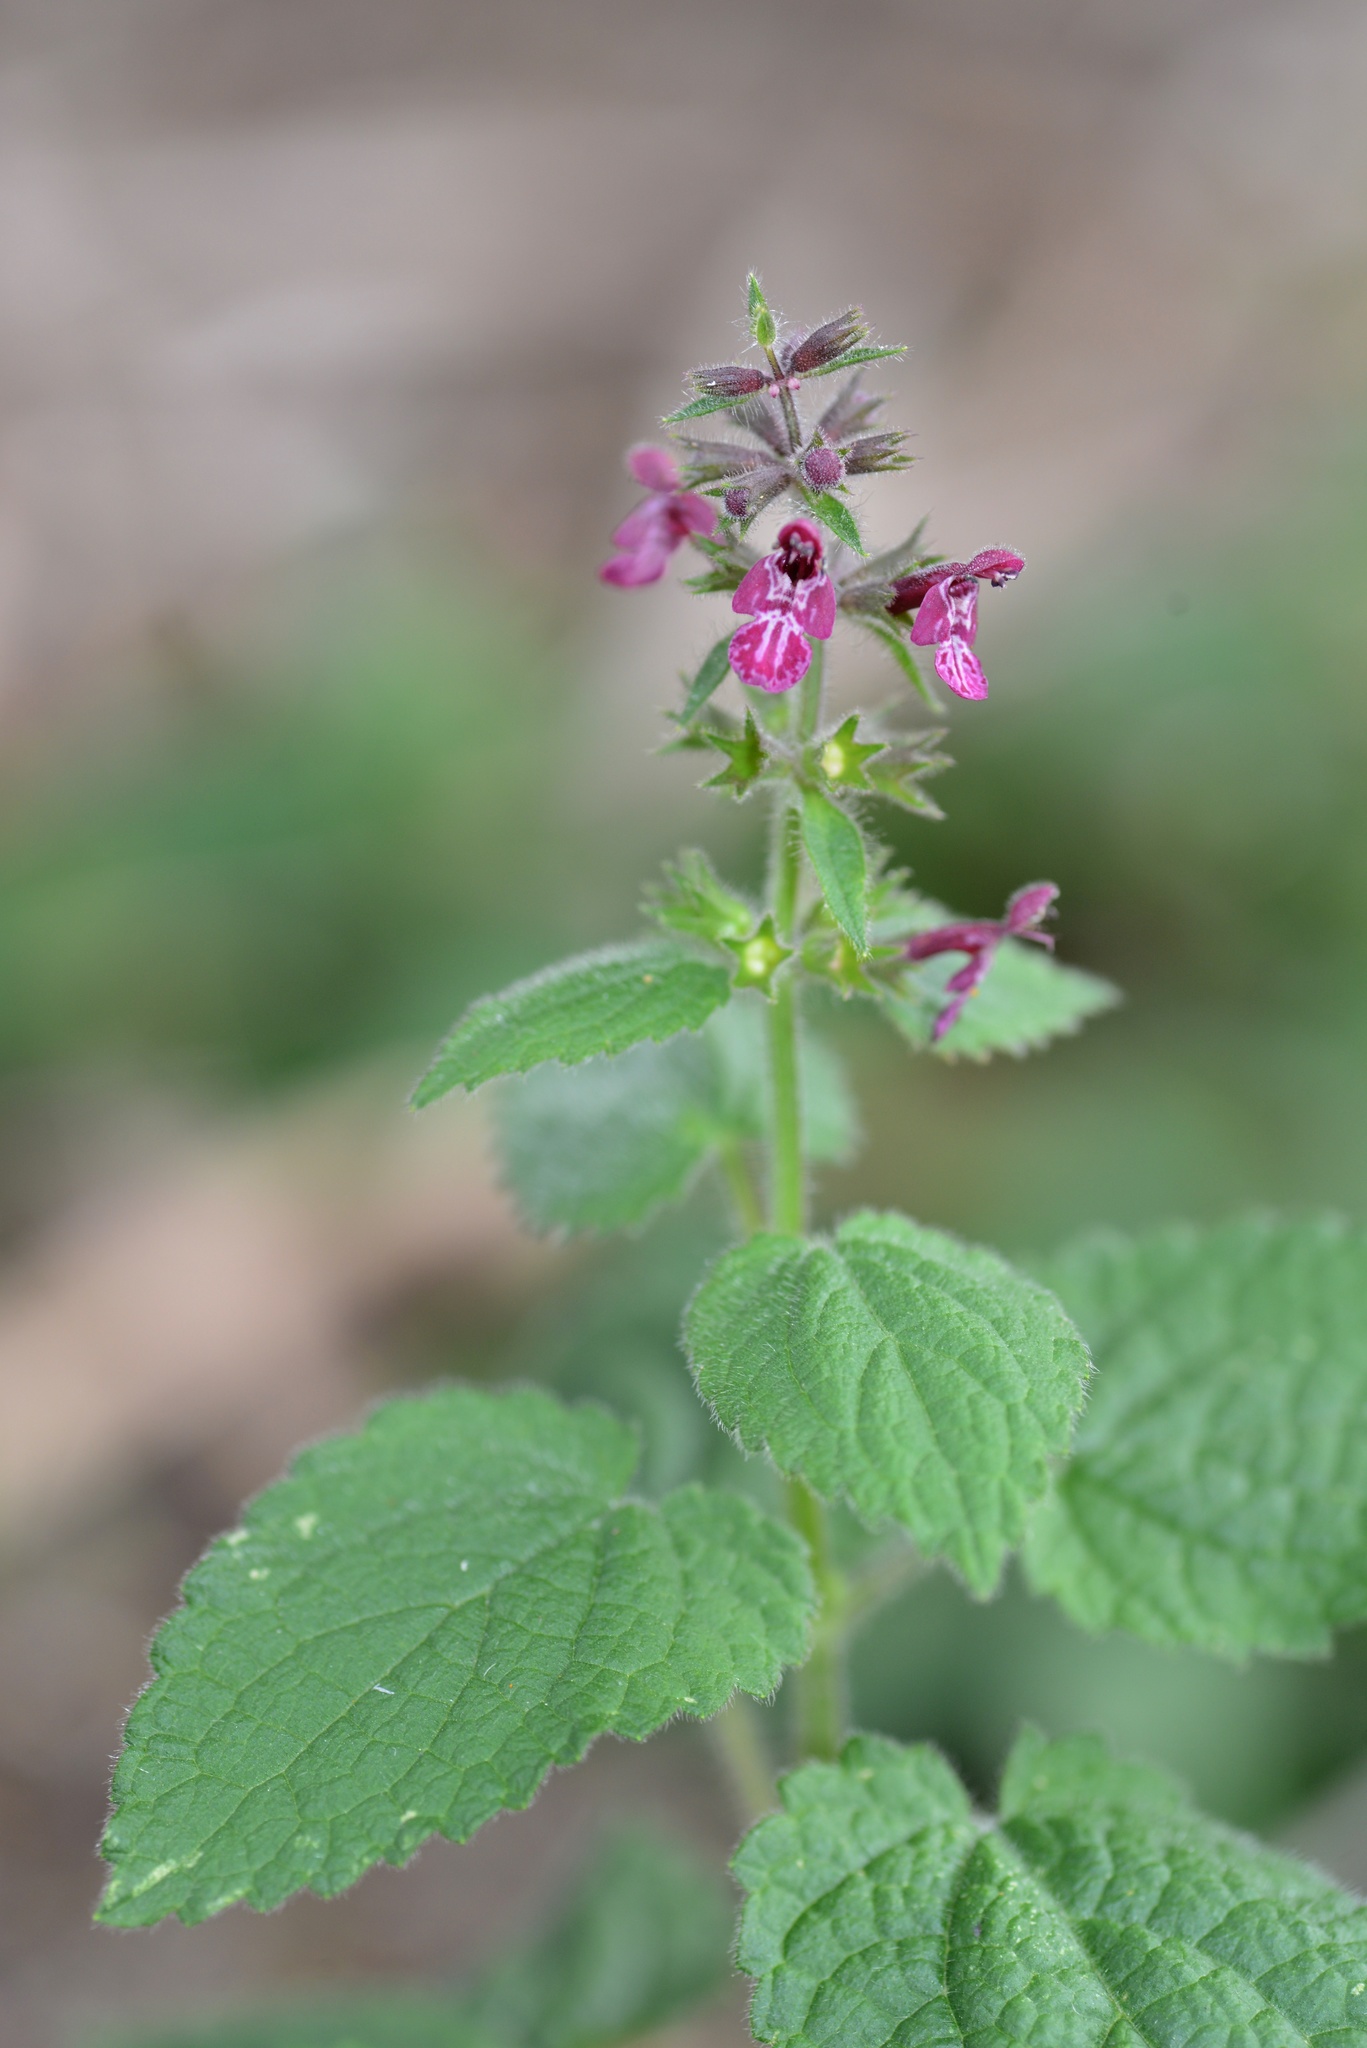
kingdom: Plantae
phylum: Tracheophyta
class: Magnoliopsida
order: Lamiales
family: Lamiaceae
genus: Stachys
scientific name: Stachys sylvatica
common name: Hedge woundwort
